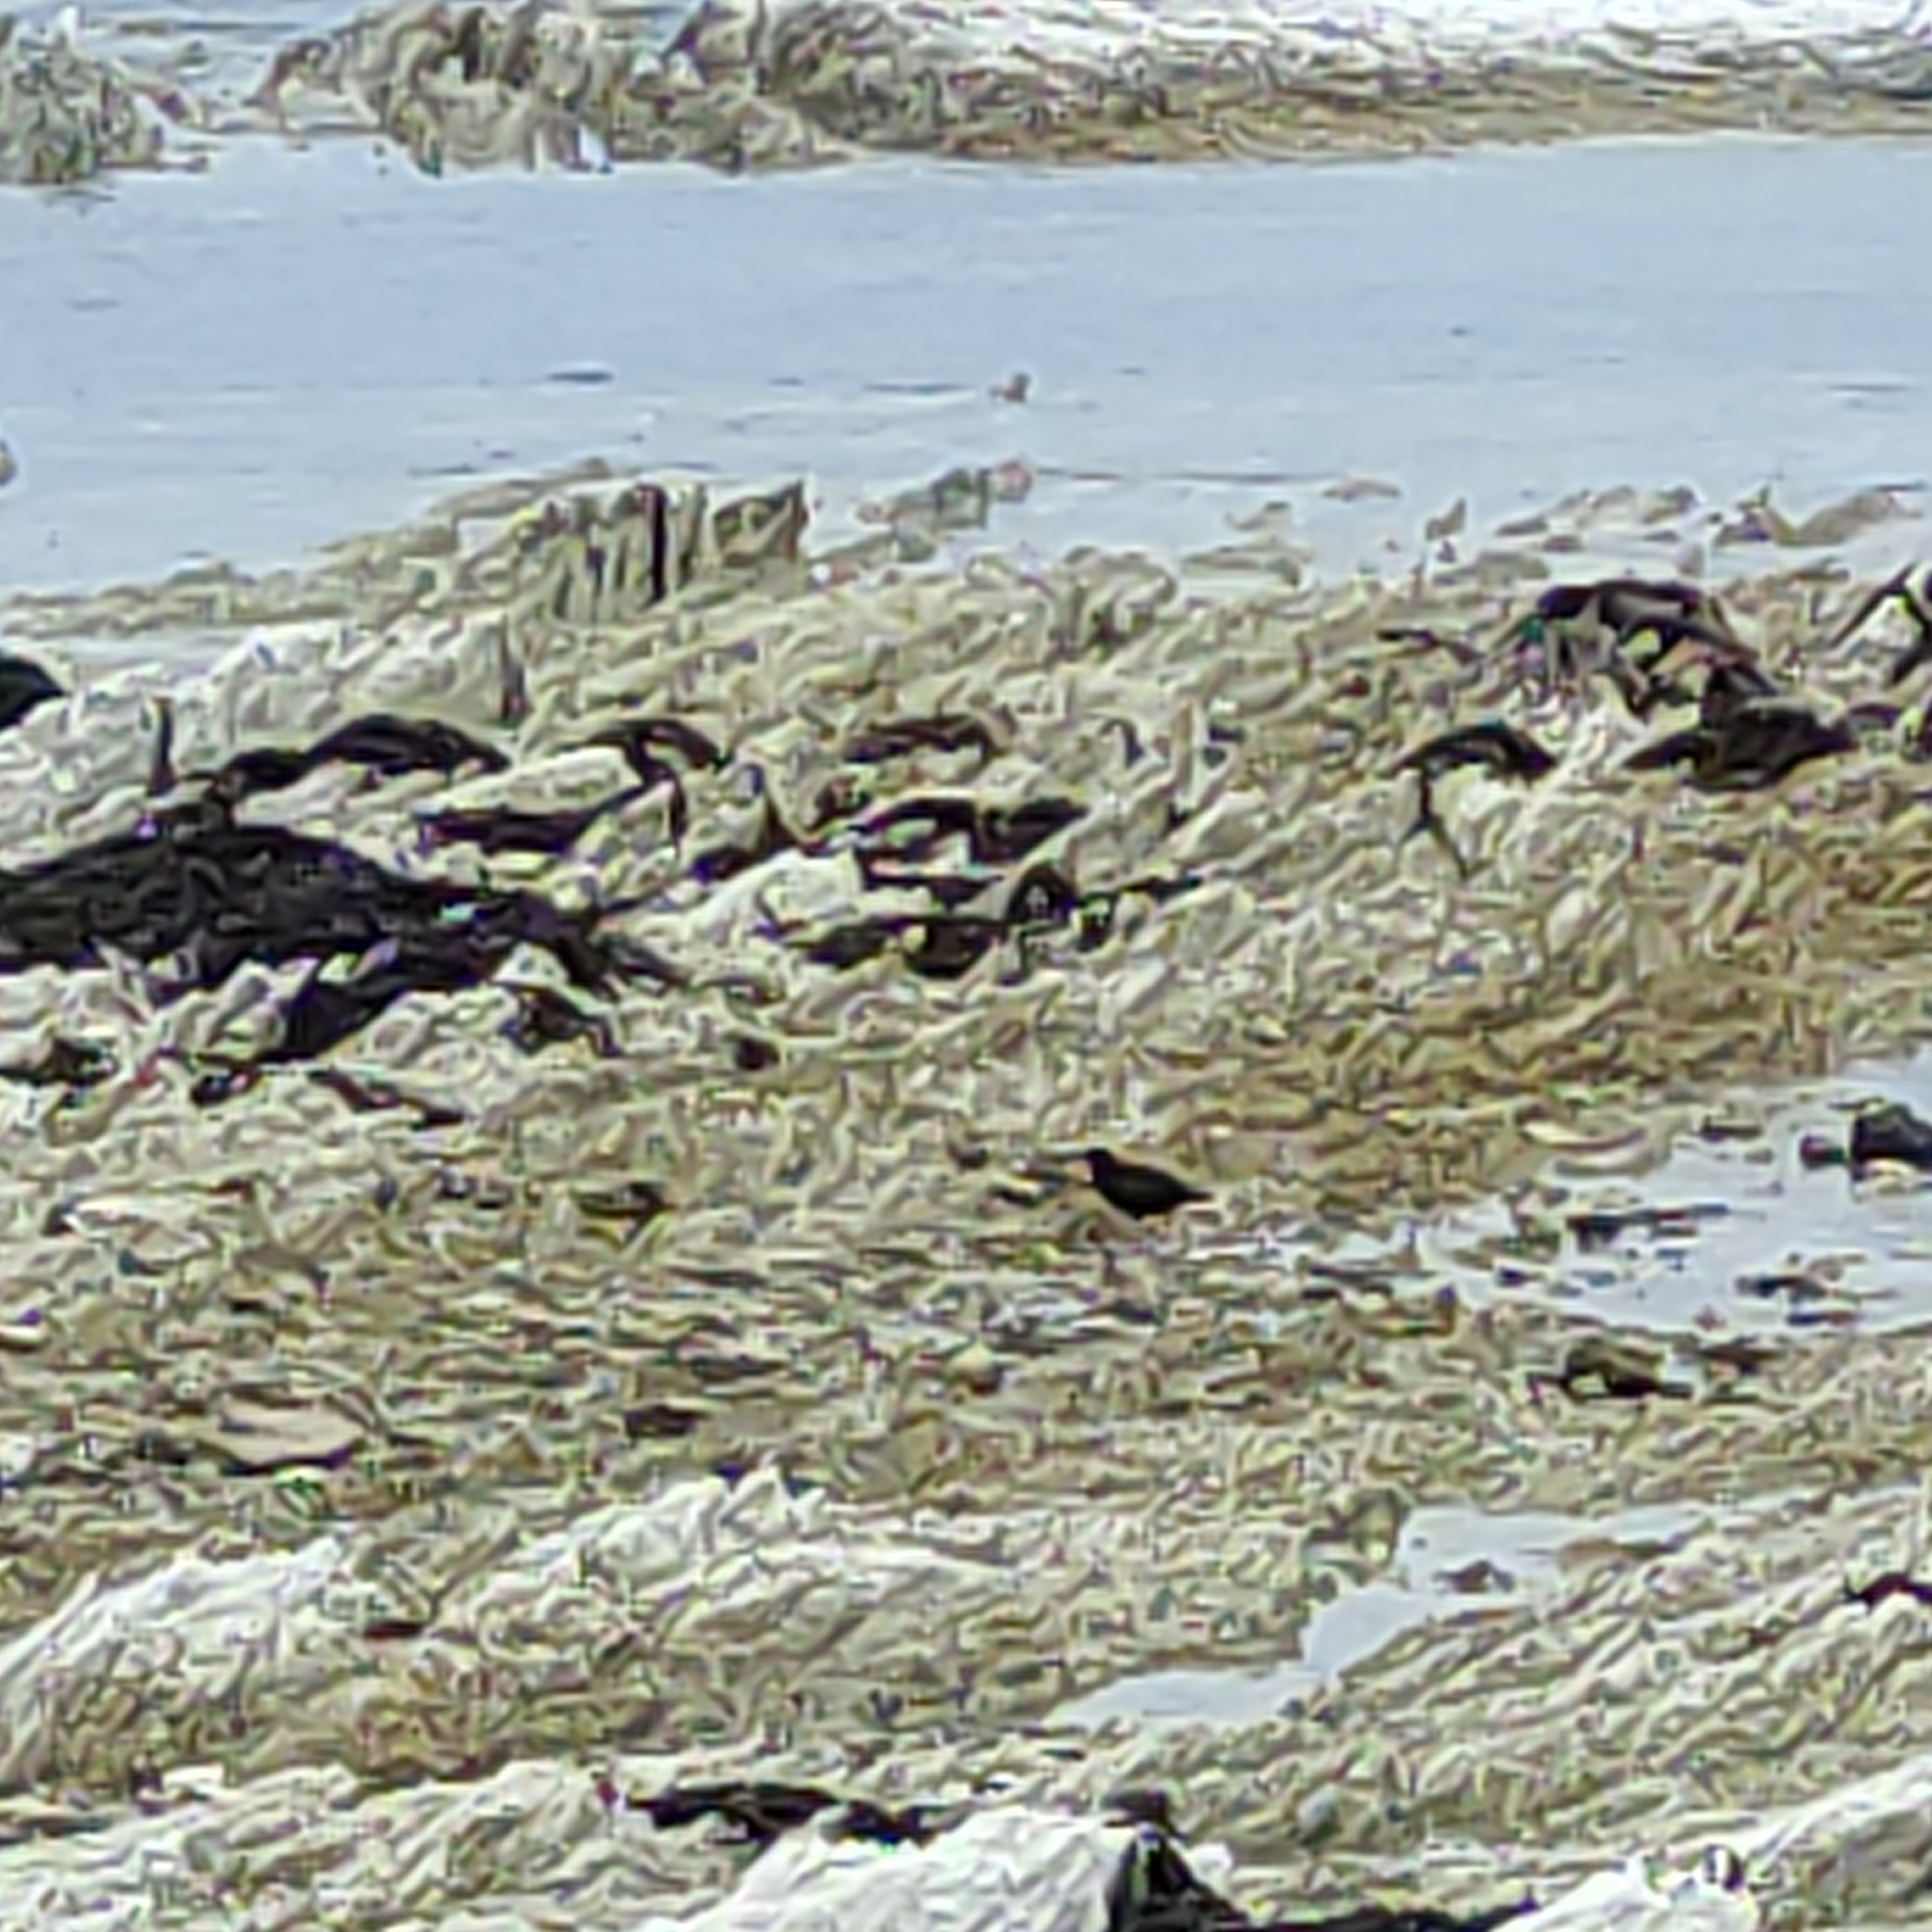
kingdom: Animalia
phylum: Chordata
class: Aves
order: Charadriiformes
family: Haematopodidae
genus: Haematopus
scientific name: Haematopus unicolor
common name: Variable oystercatcher
